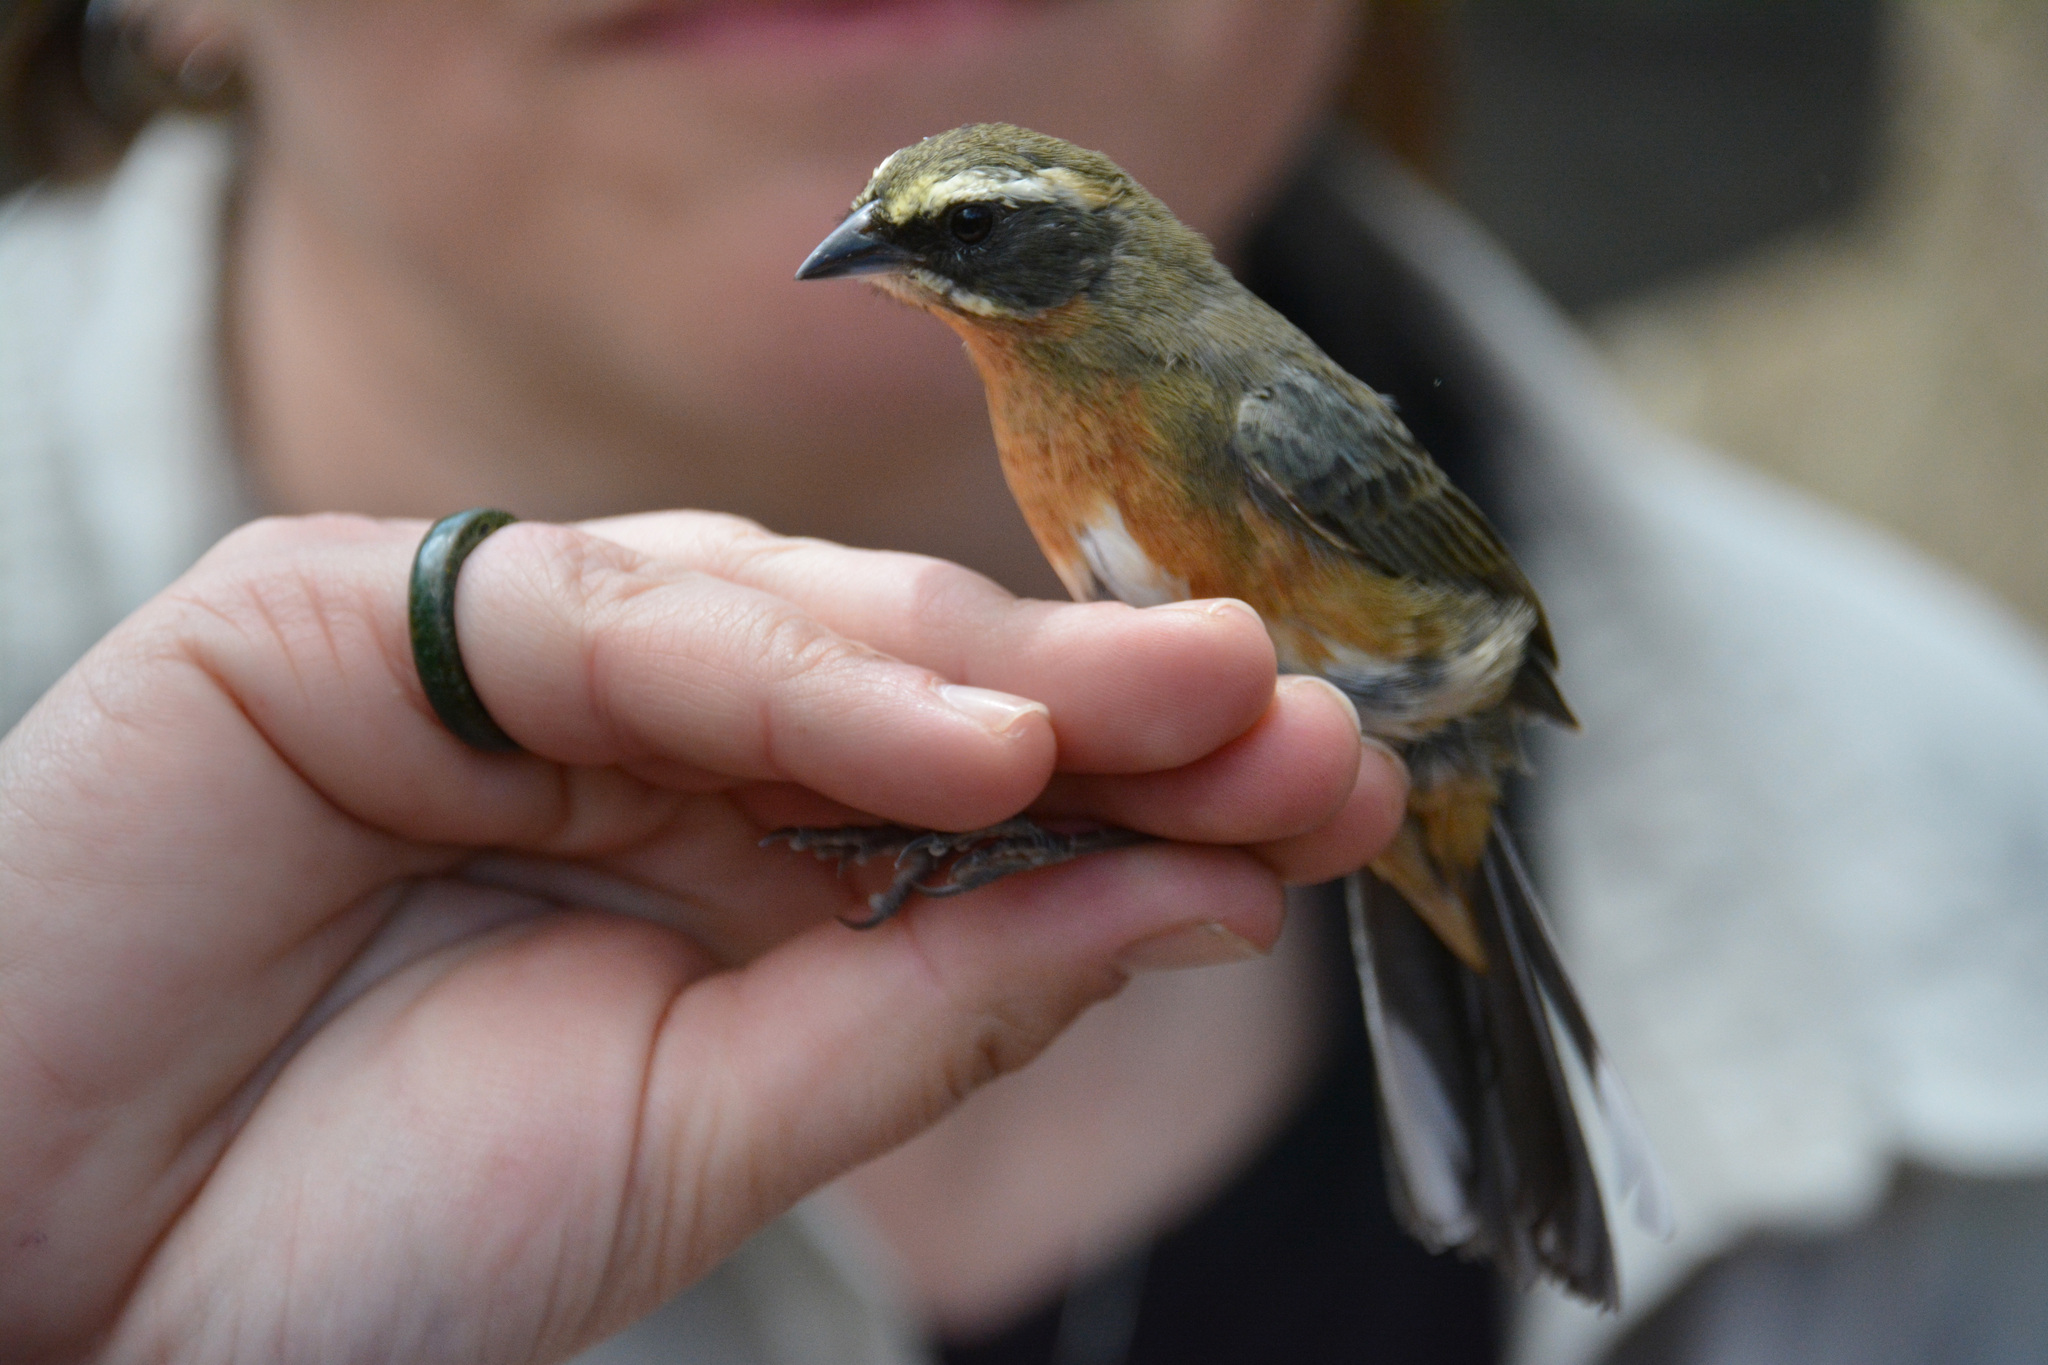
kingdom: Animalia
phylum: Chordata
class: Aves
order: Passeriformes
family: Thraupidae
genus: Poospiza
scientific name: Poospiza whitii
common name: Black-and-chestnut warbling finch
